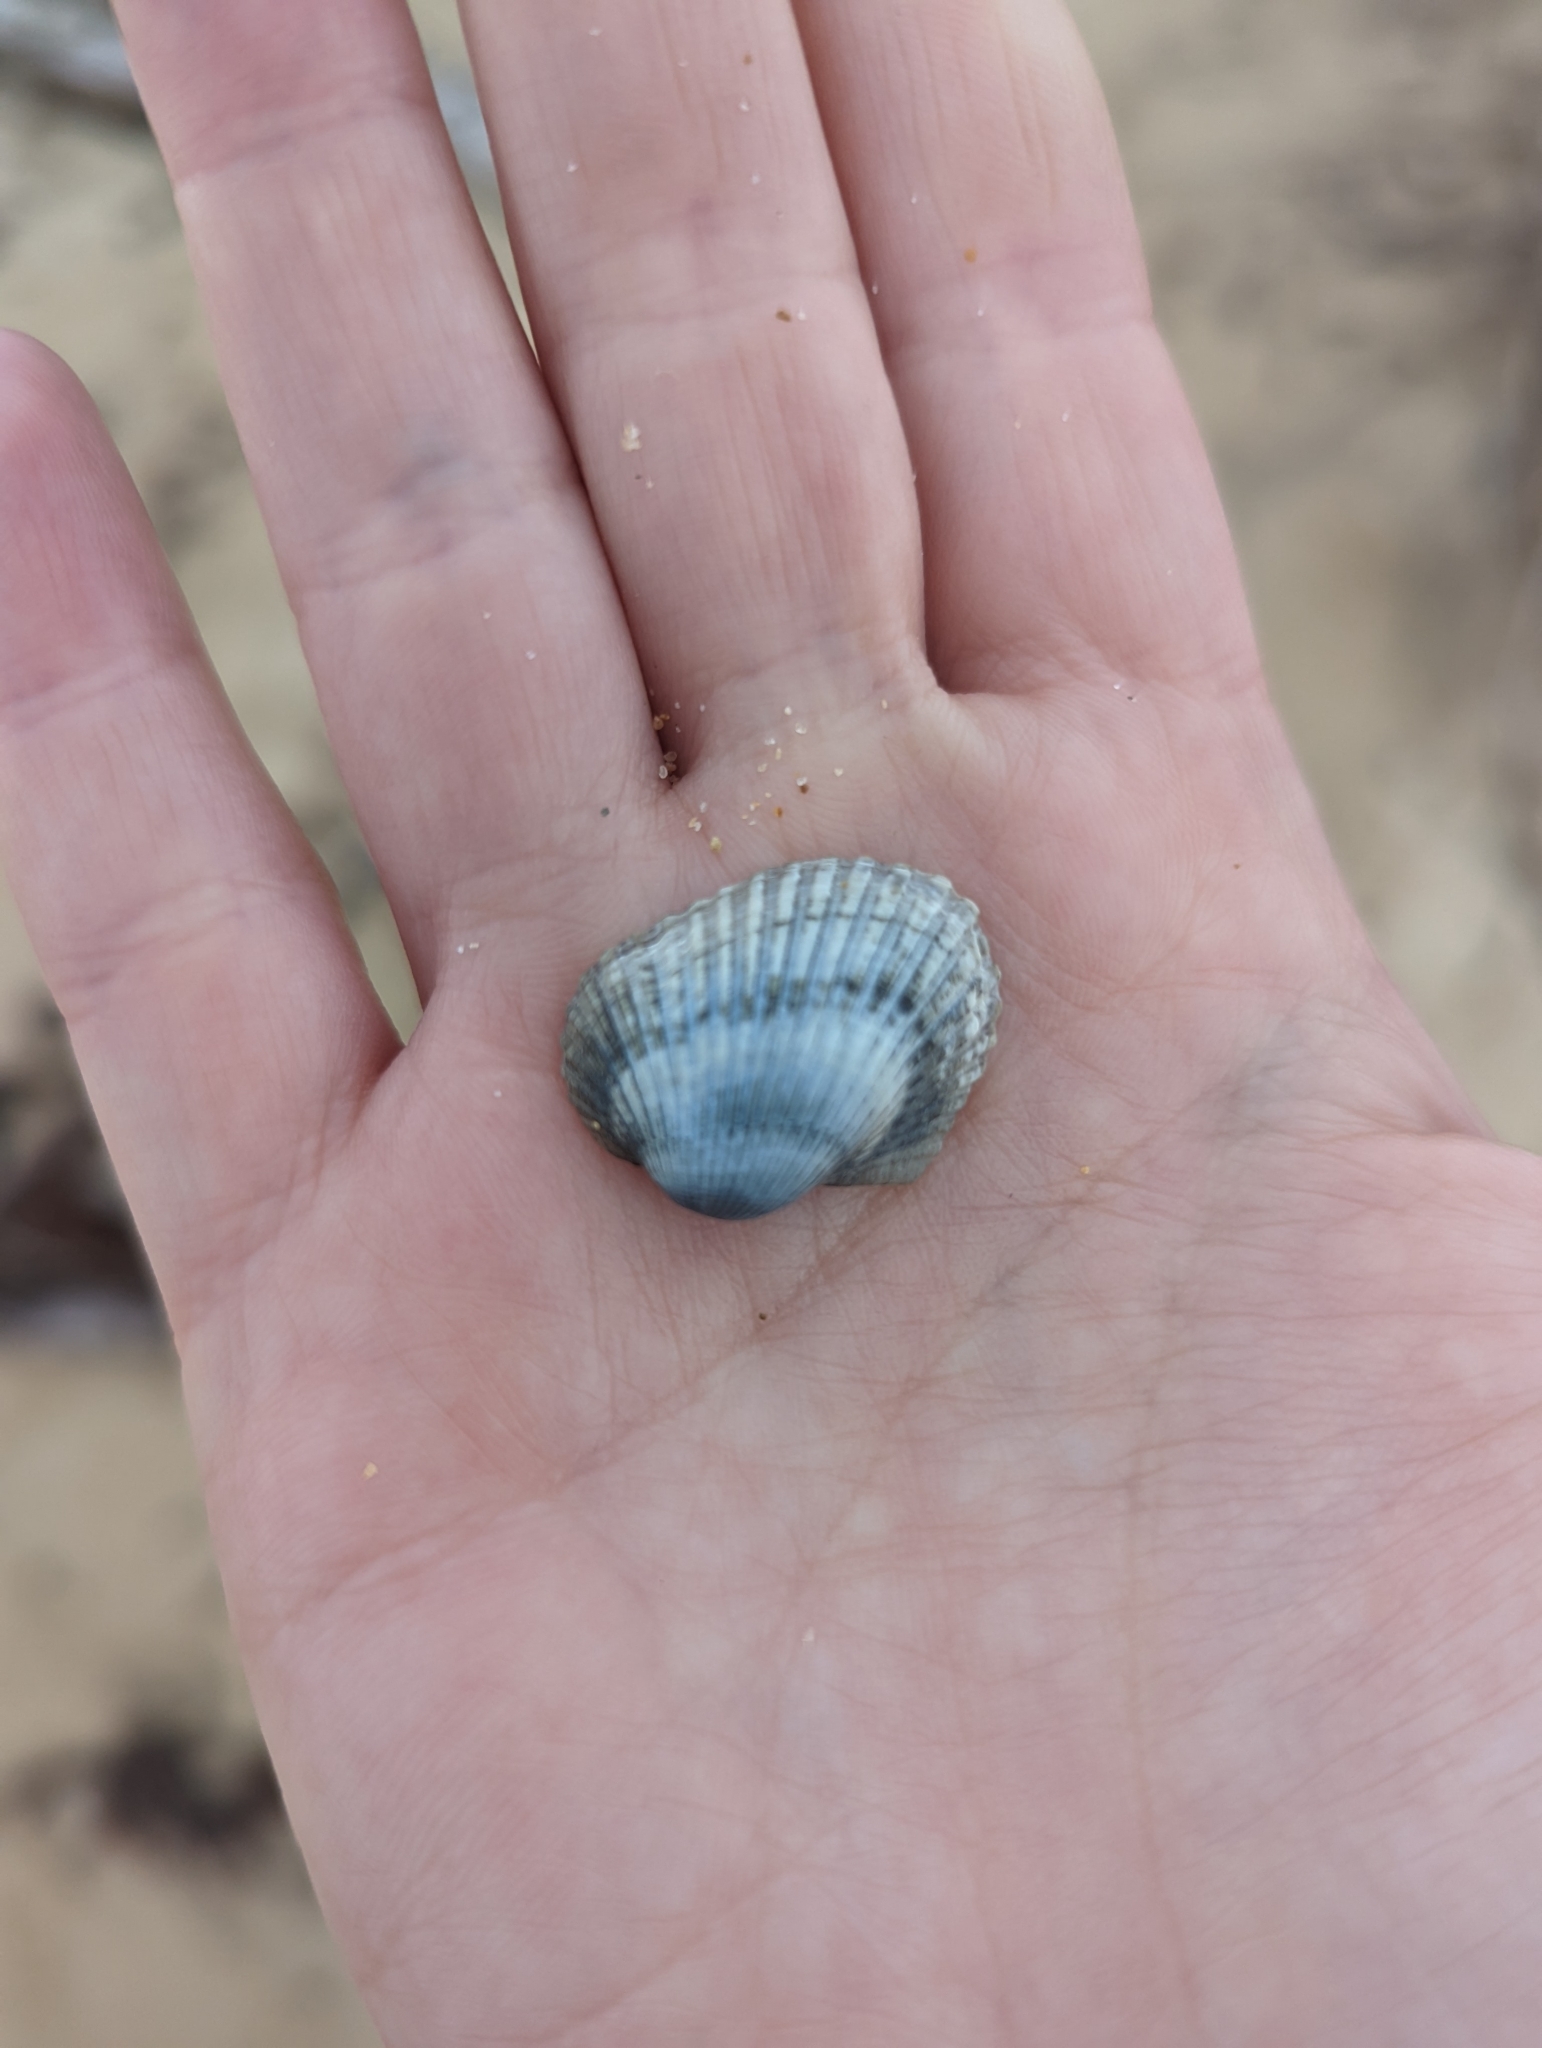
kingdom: Animalia
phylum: Mollusca
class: Bivalvia
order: Arcida
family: Arcidae
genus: Anadara
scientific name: Anadara trapezia
